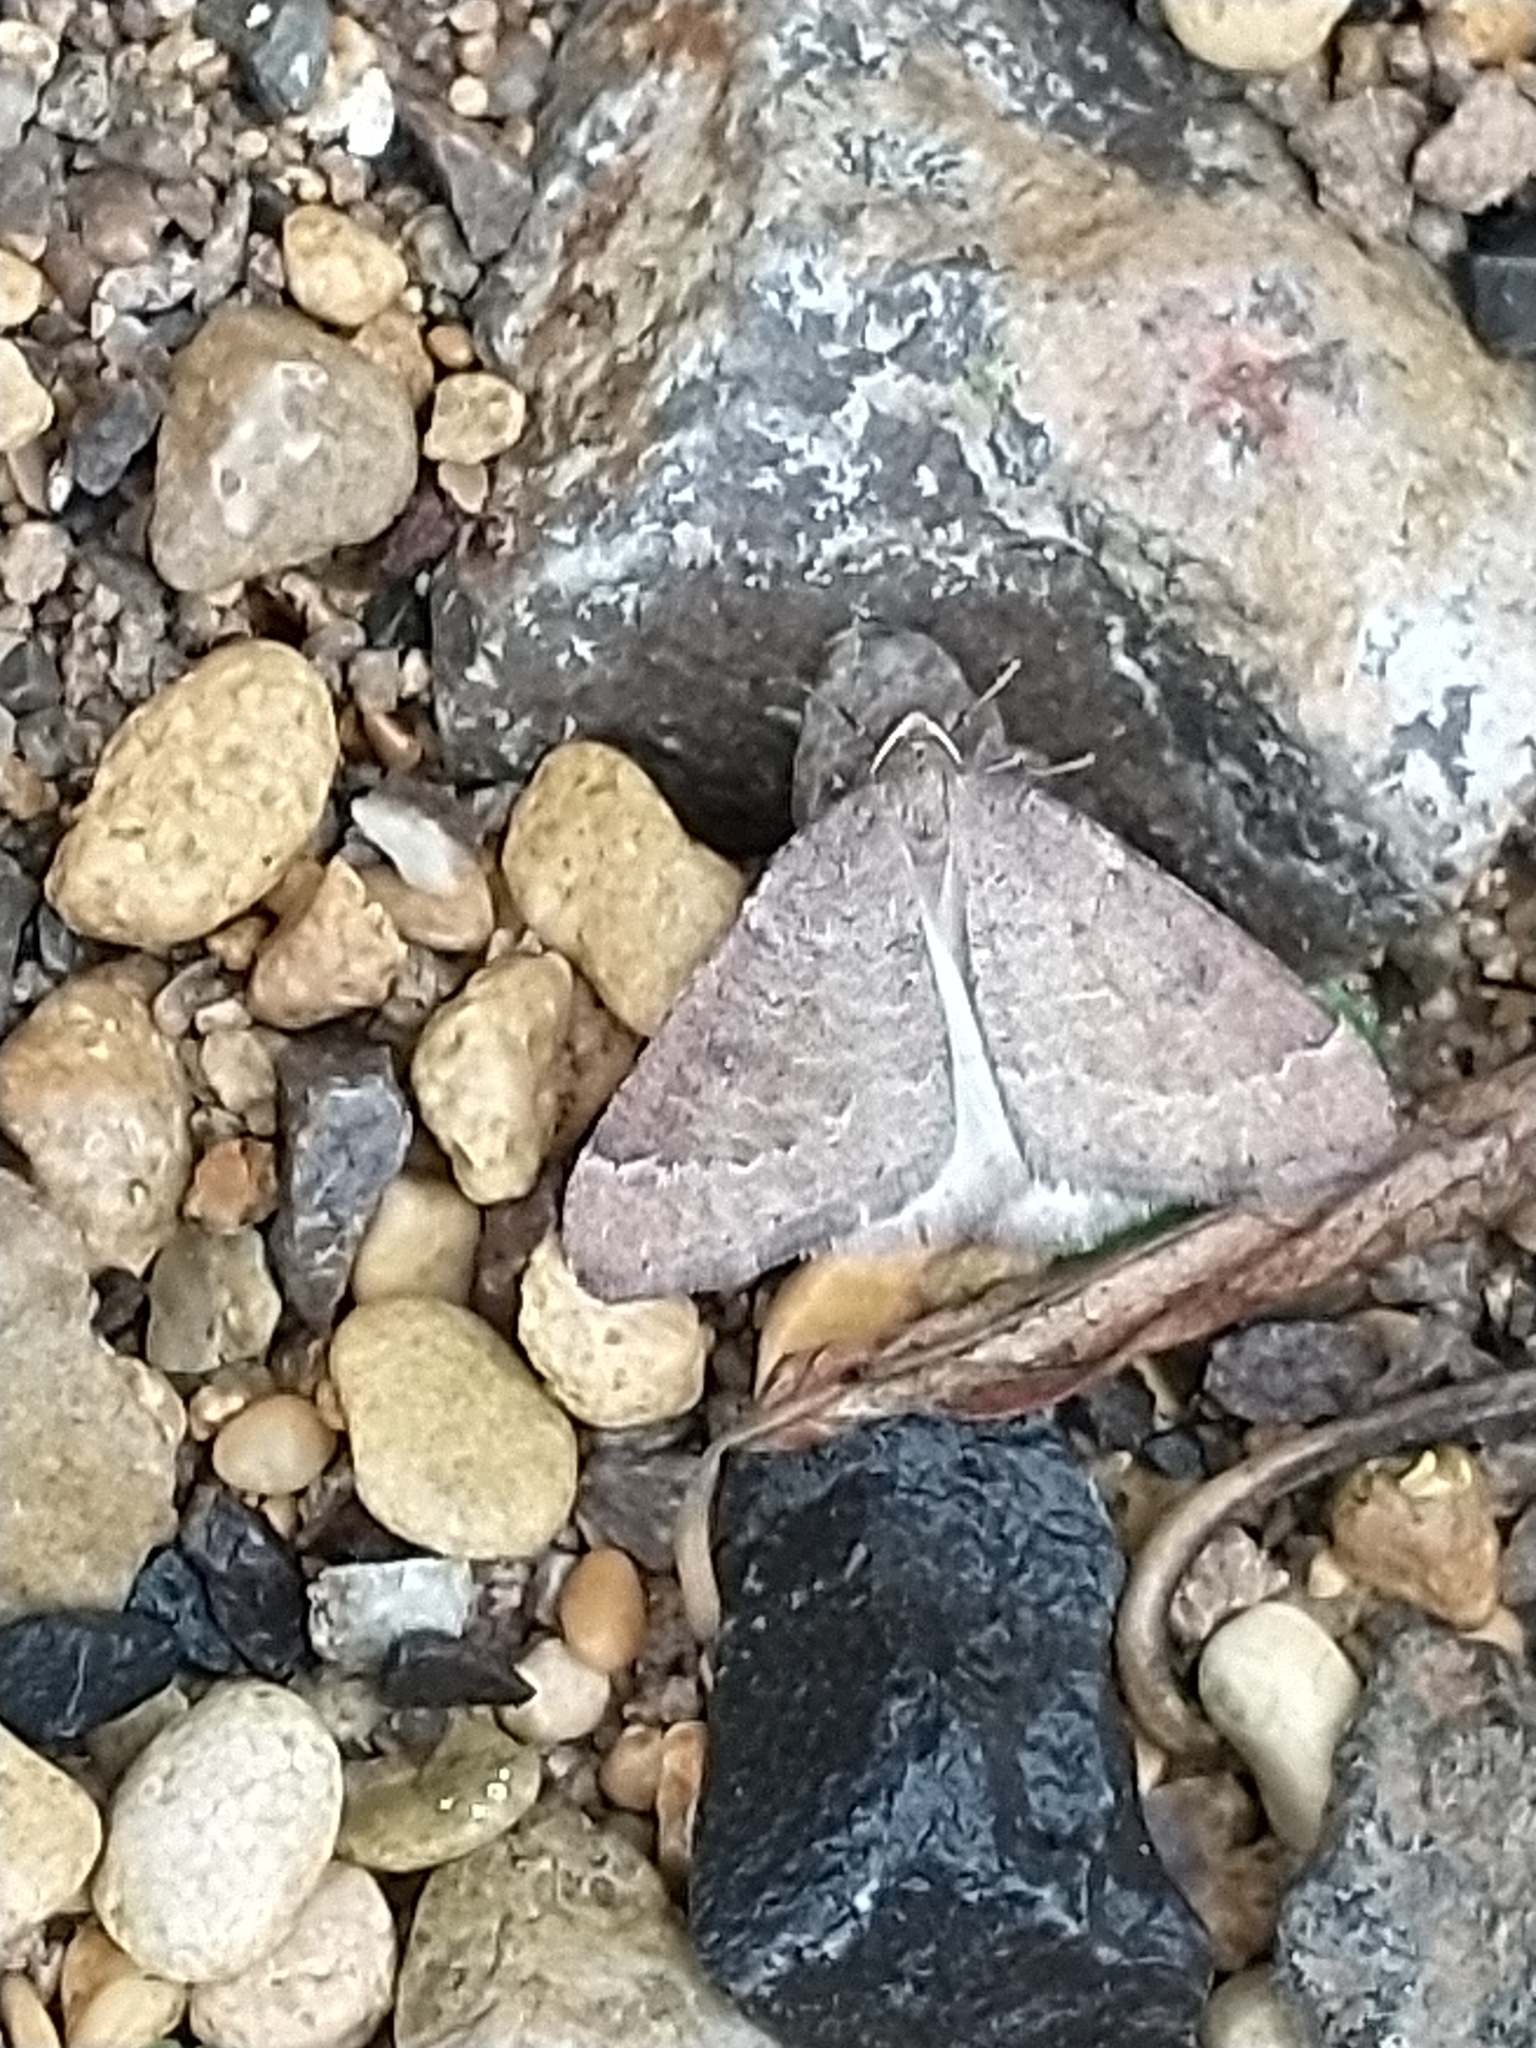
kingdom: Animalia
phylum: Arthropoda
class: Insecta
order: Lepidoptera
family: Geometridae
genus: Theria
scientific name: Theria primaria
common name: Early moth
